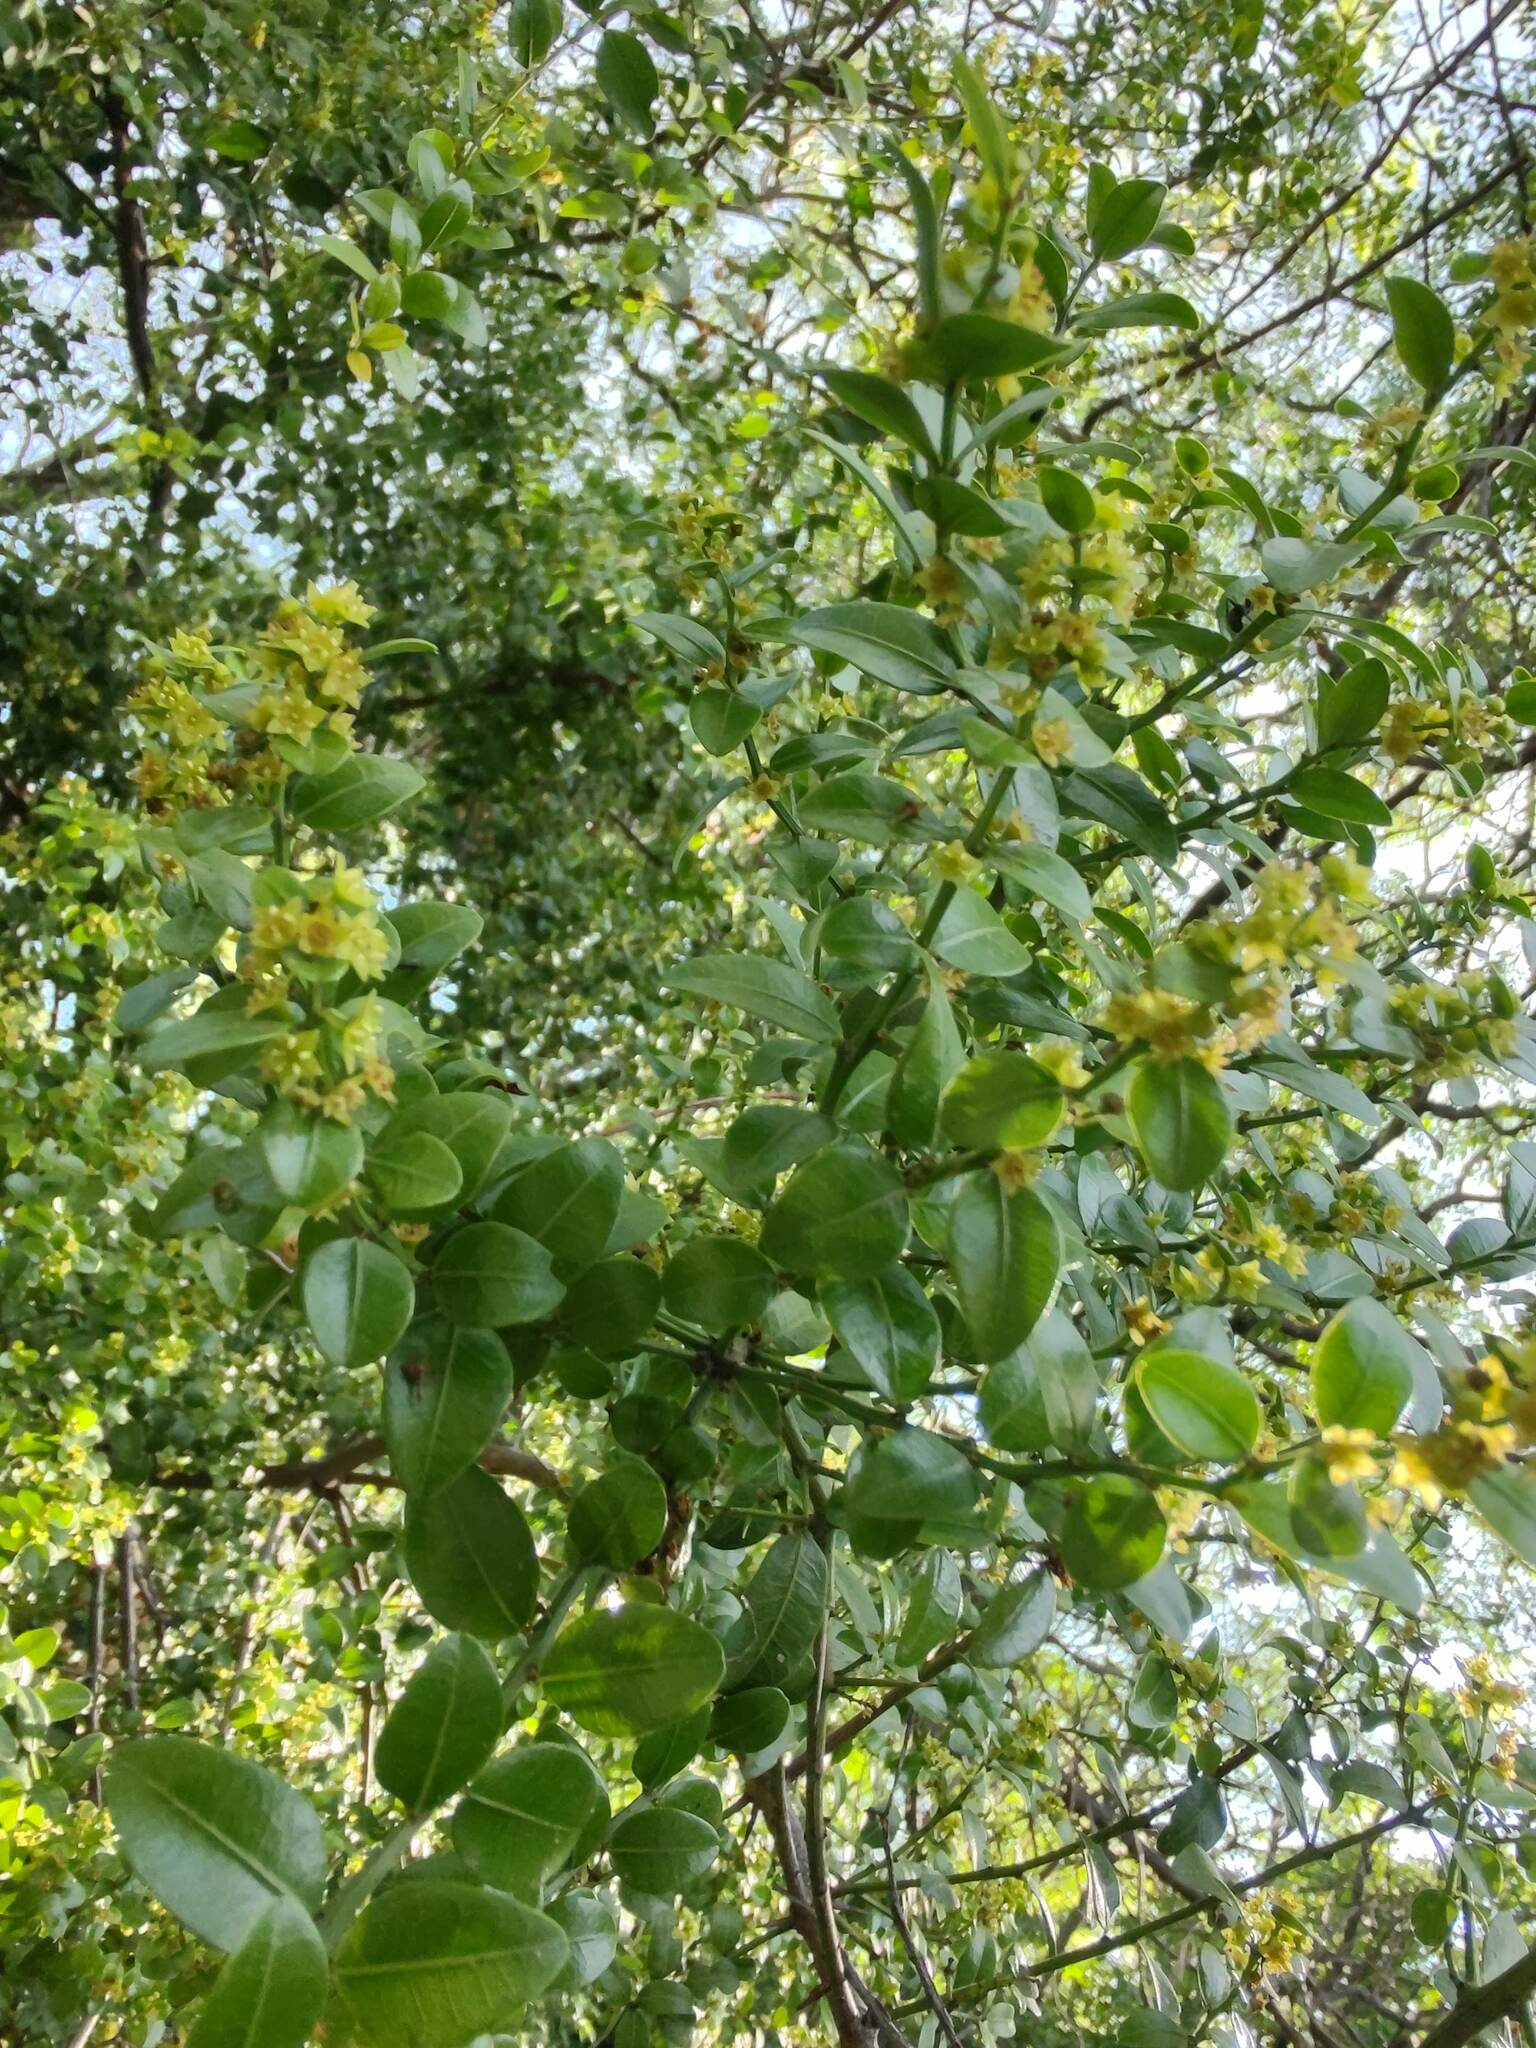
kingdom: Plantae
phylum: Tracheophyta
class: Magnoliopsida
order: Rosales
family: Rhamnaceae
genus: Scutia
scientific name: Scutia buxifolia
